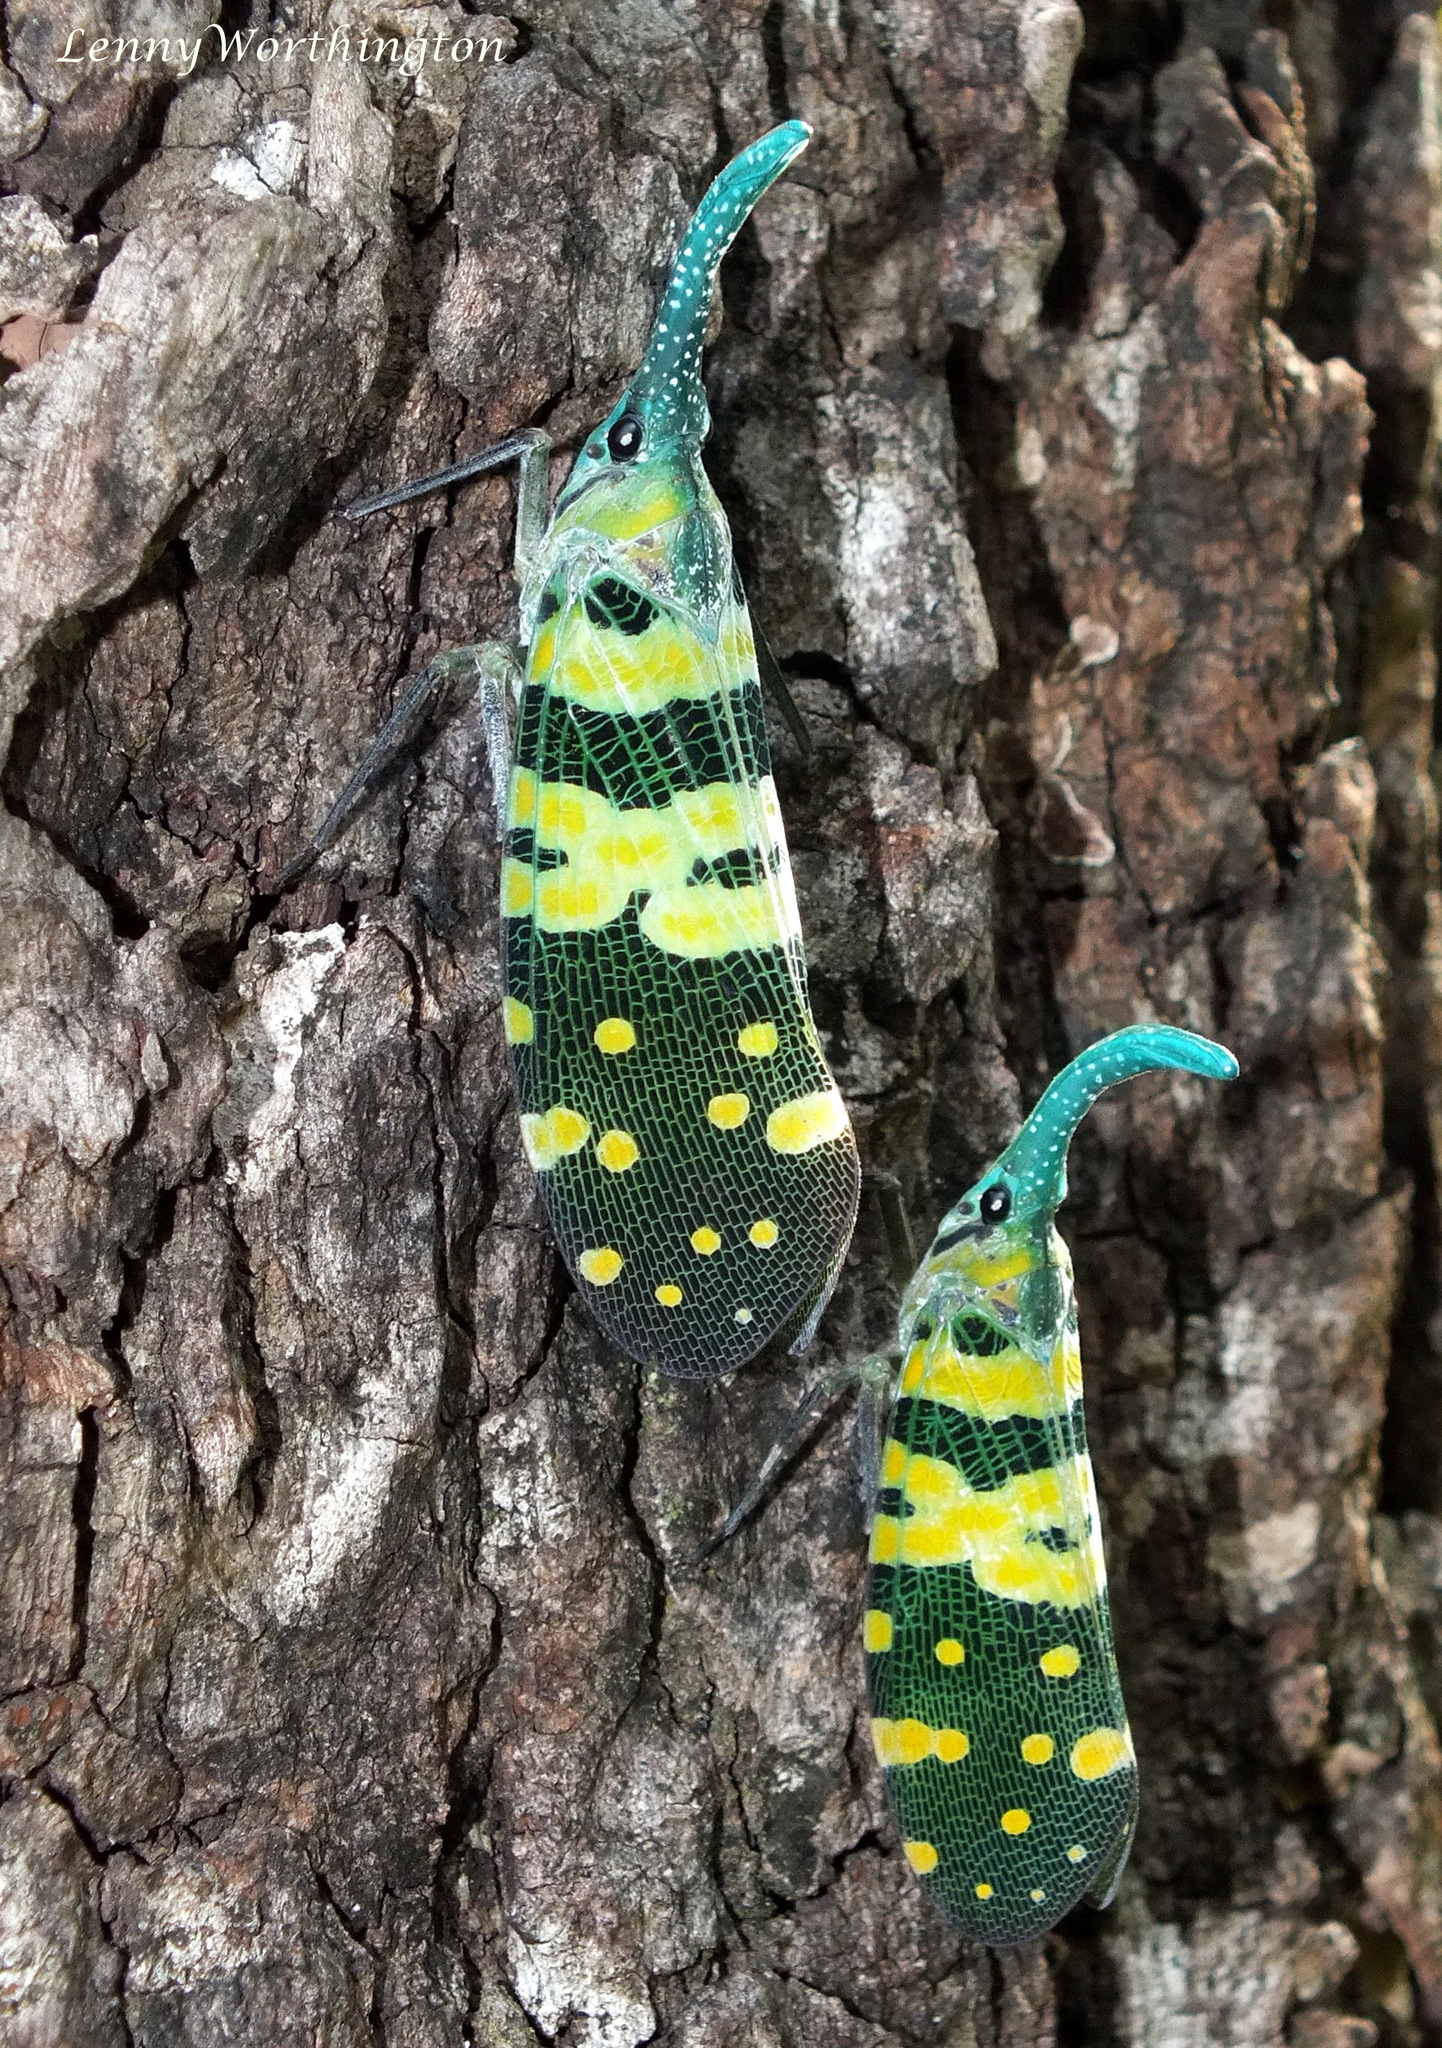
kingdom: Animalia
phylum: Arthropoda
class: Insecta
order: Hemiptera
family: Fulgoridae
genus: Pyrops
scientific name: Pyrops viridirostris
